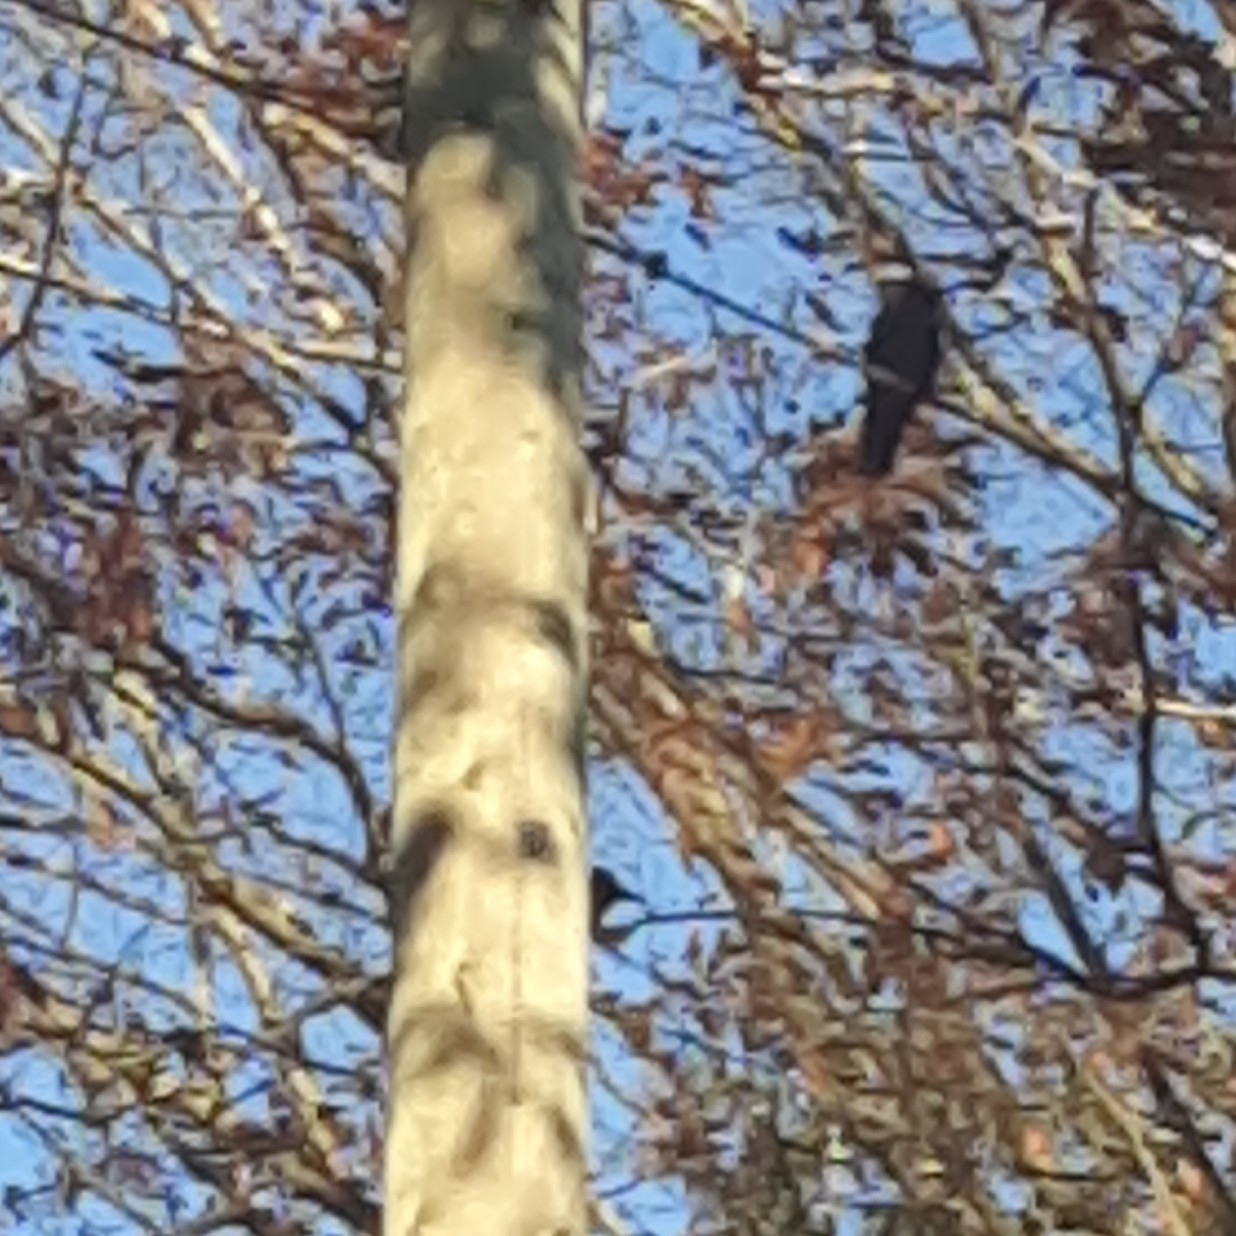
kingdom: Animalia
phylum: Chordata
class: Aves
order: Passeriformes
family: Corvidae
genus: Corvus
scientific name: Corvus brachyrhynchos
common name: American crow
